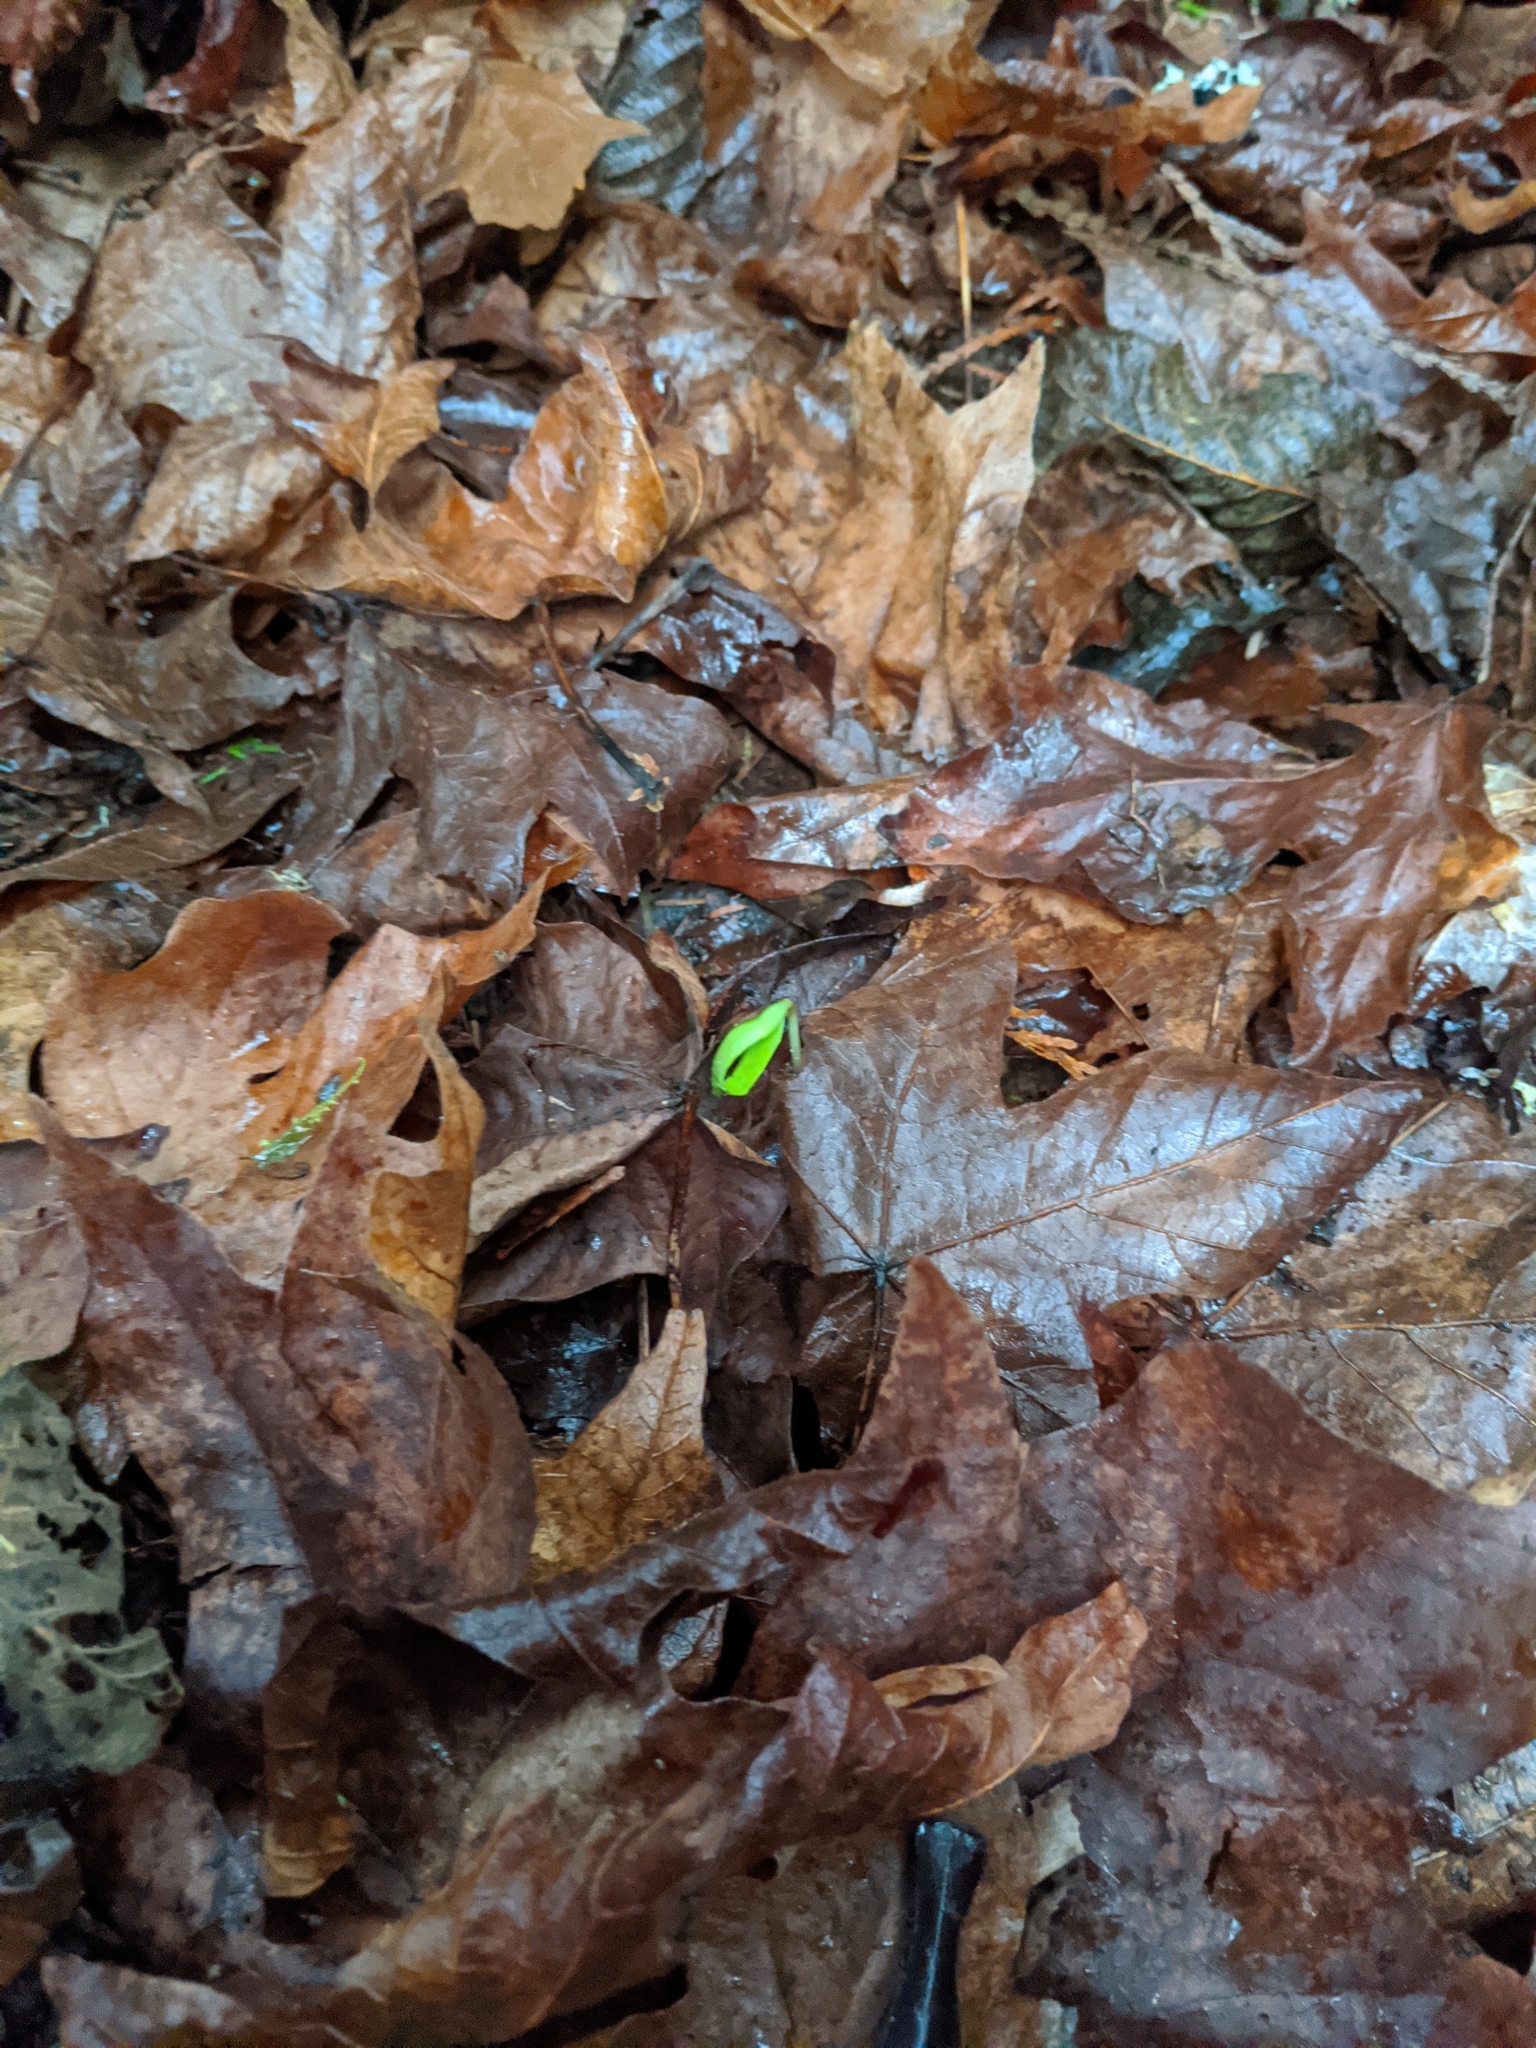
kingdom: Plantae
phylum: Tracheophyta
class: Magnoliopsida
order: Sapindales
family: Sapindaceae
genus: Acer
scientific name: Acer macrophyllum
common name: Oregon maple
